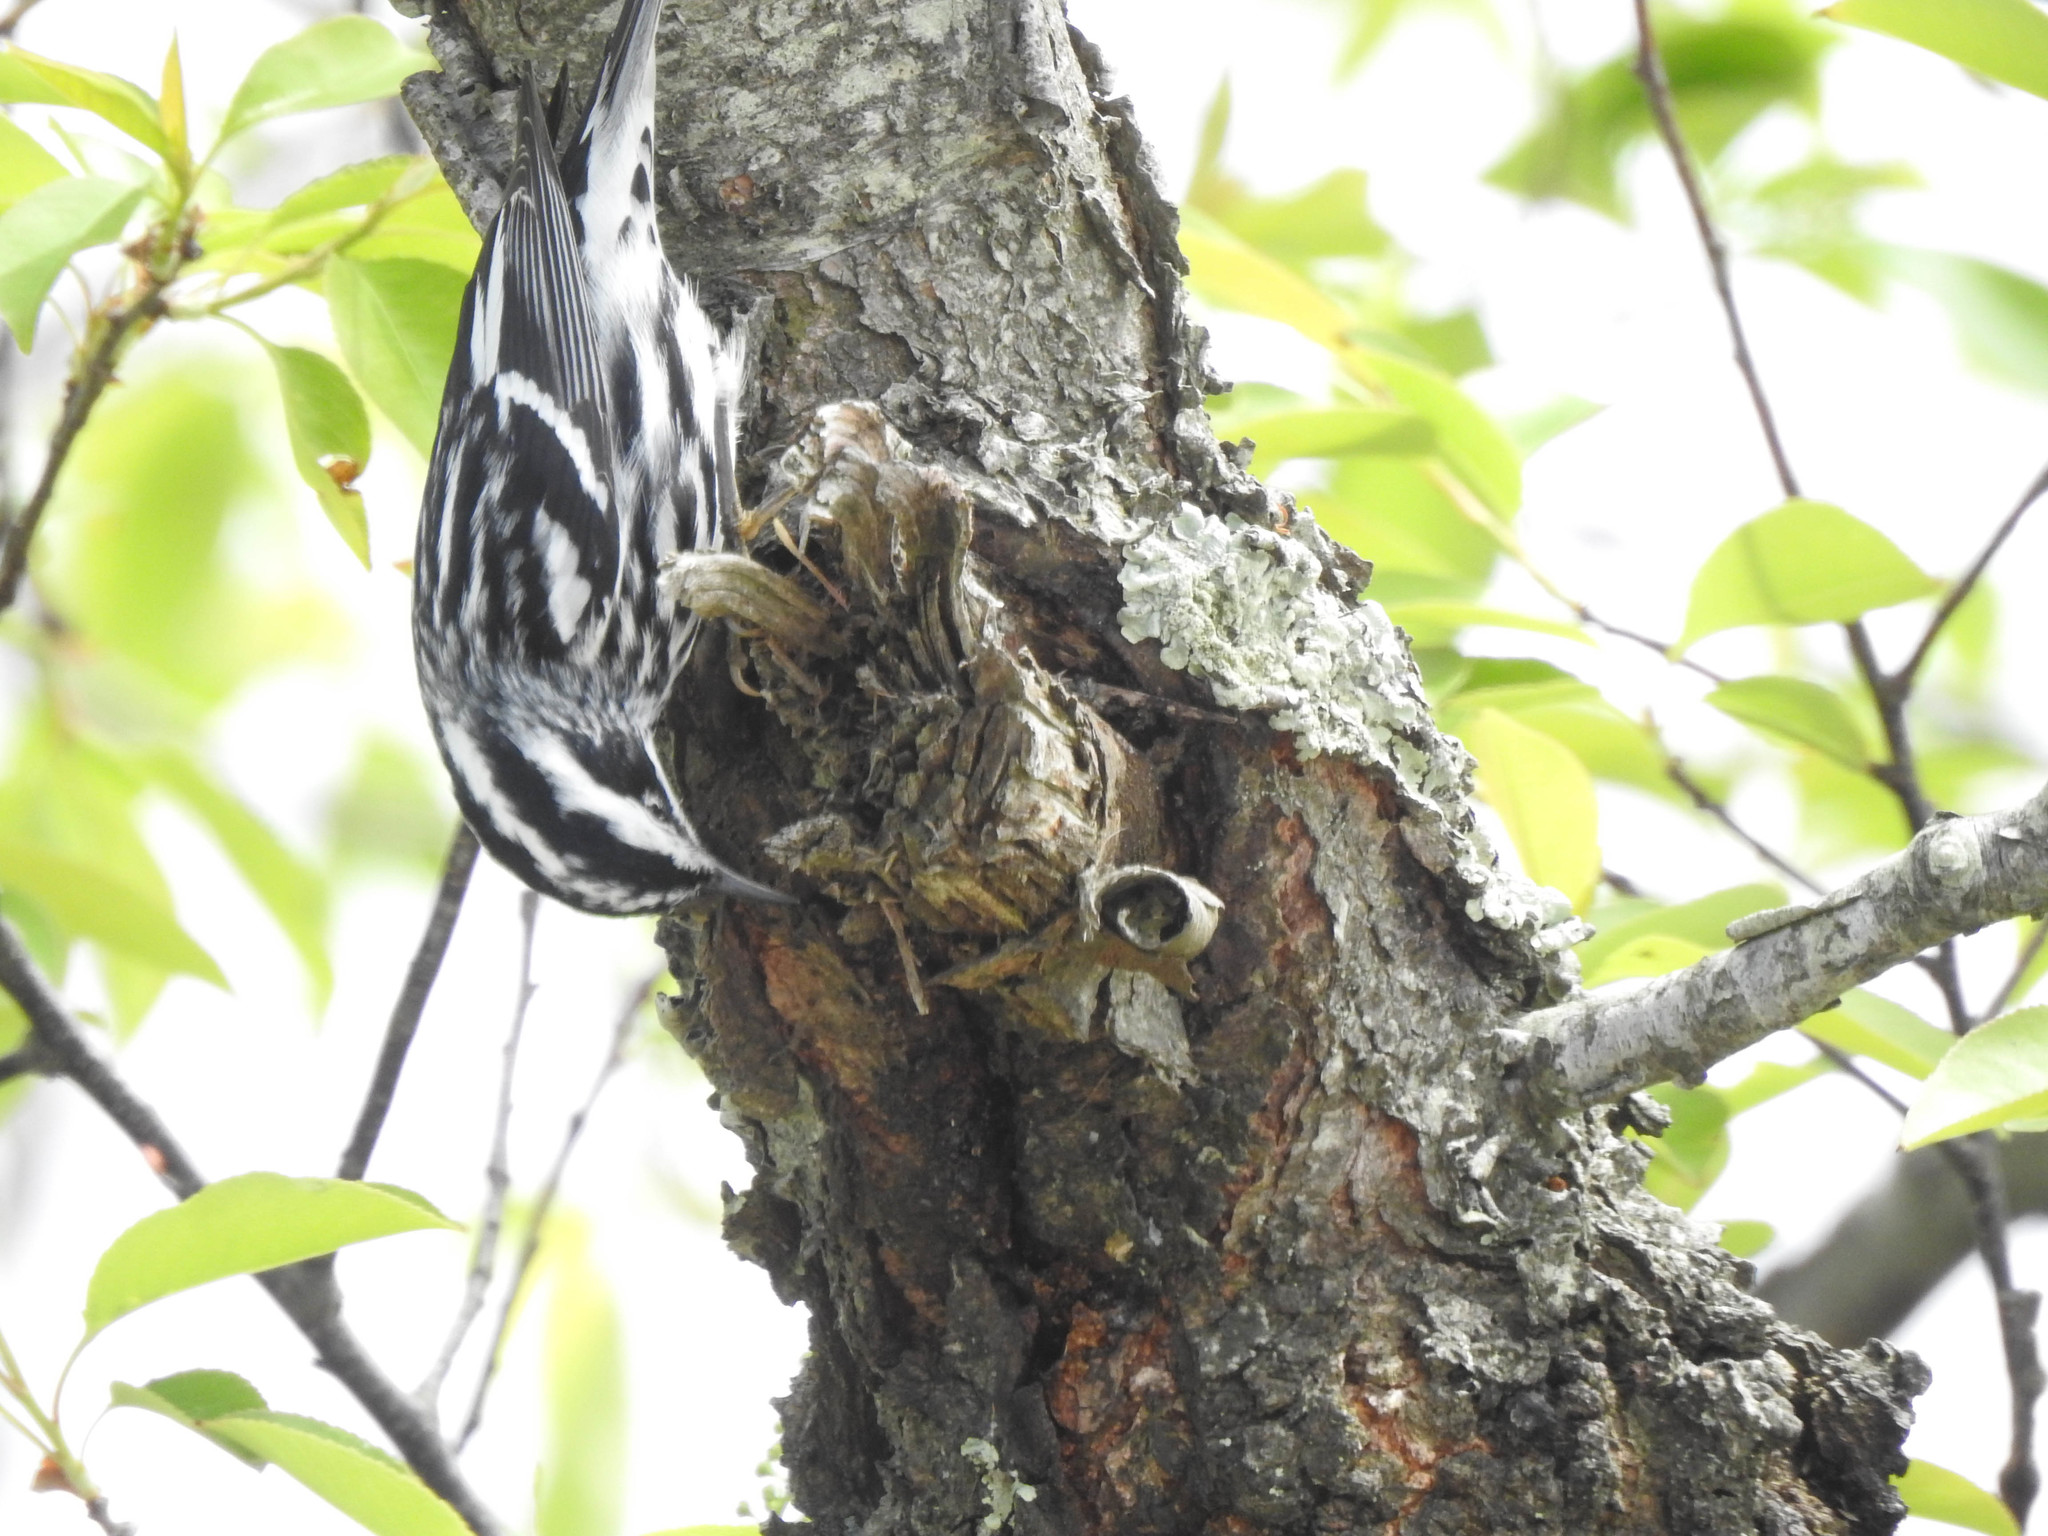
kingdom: Animalia
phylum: Chordata
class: Aves
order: Passeriformes
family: Parulidae
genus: Mniotilta
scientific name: Mniotilta varia
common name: Black-and-white warbler
